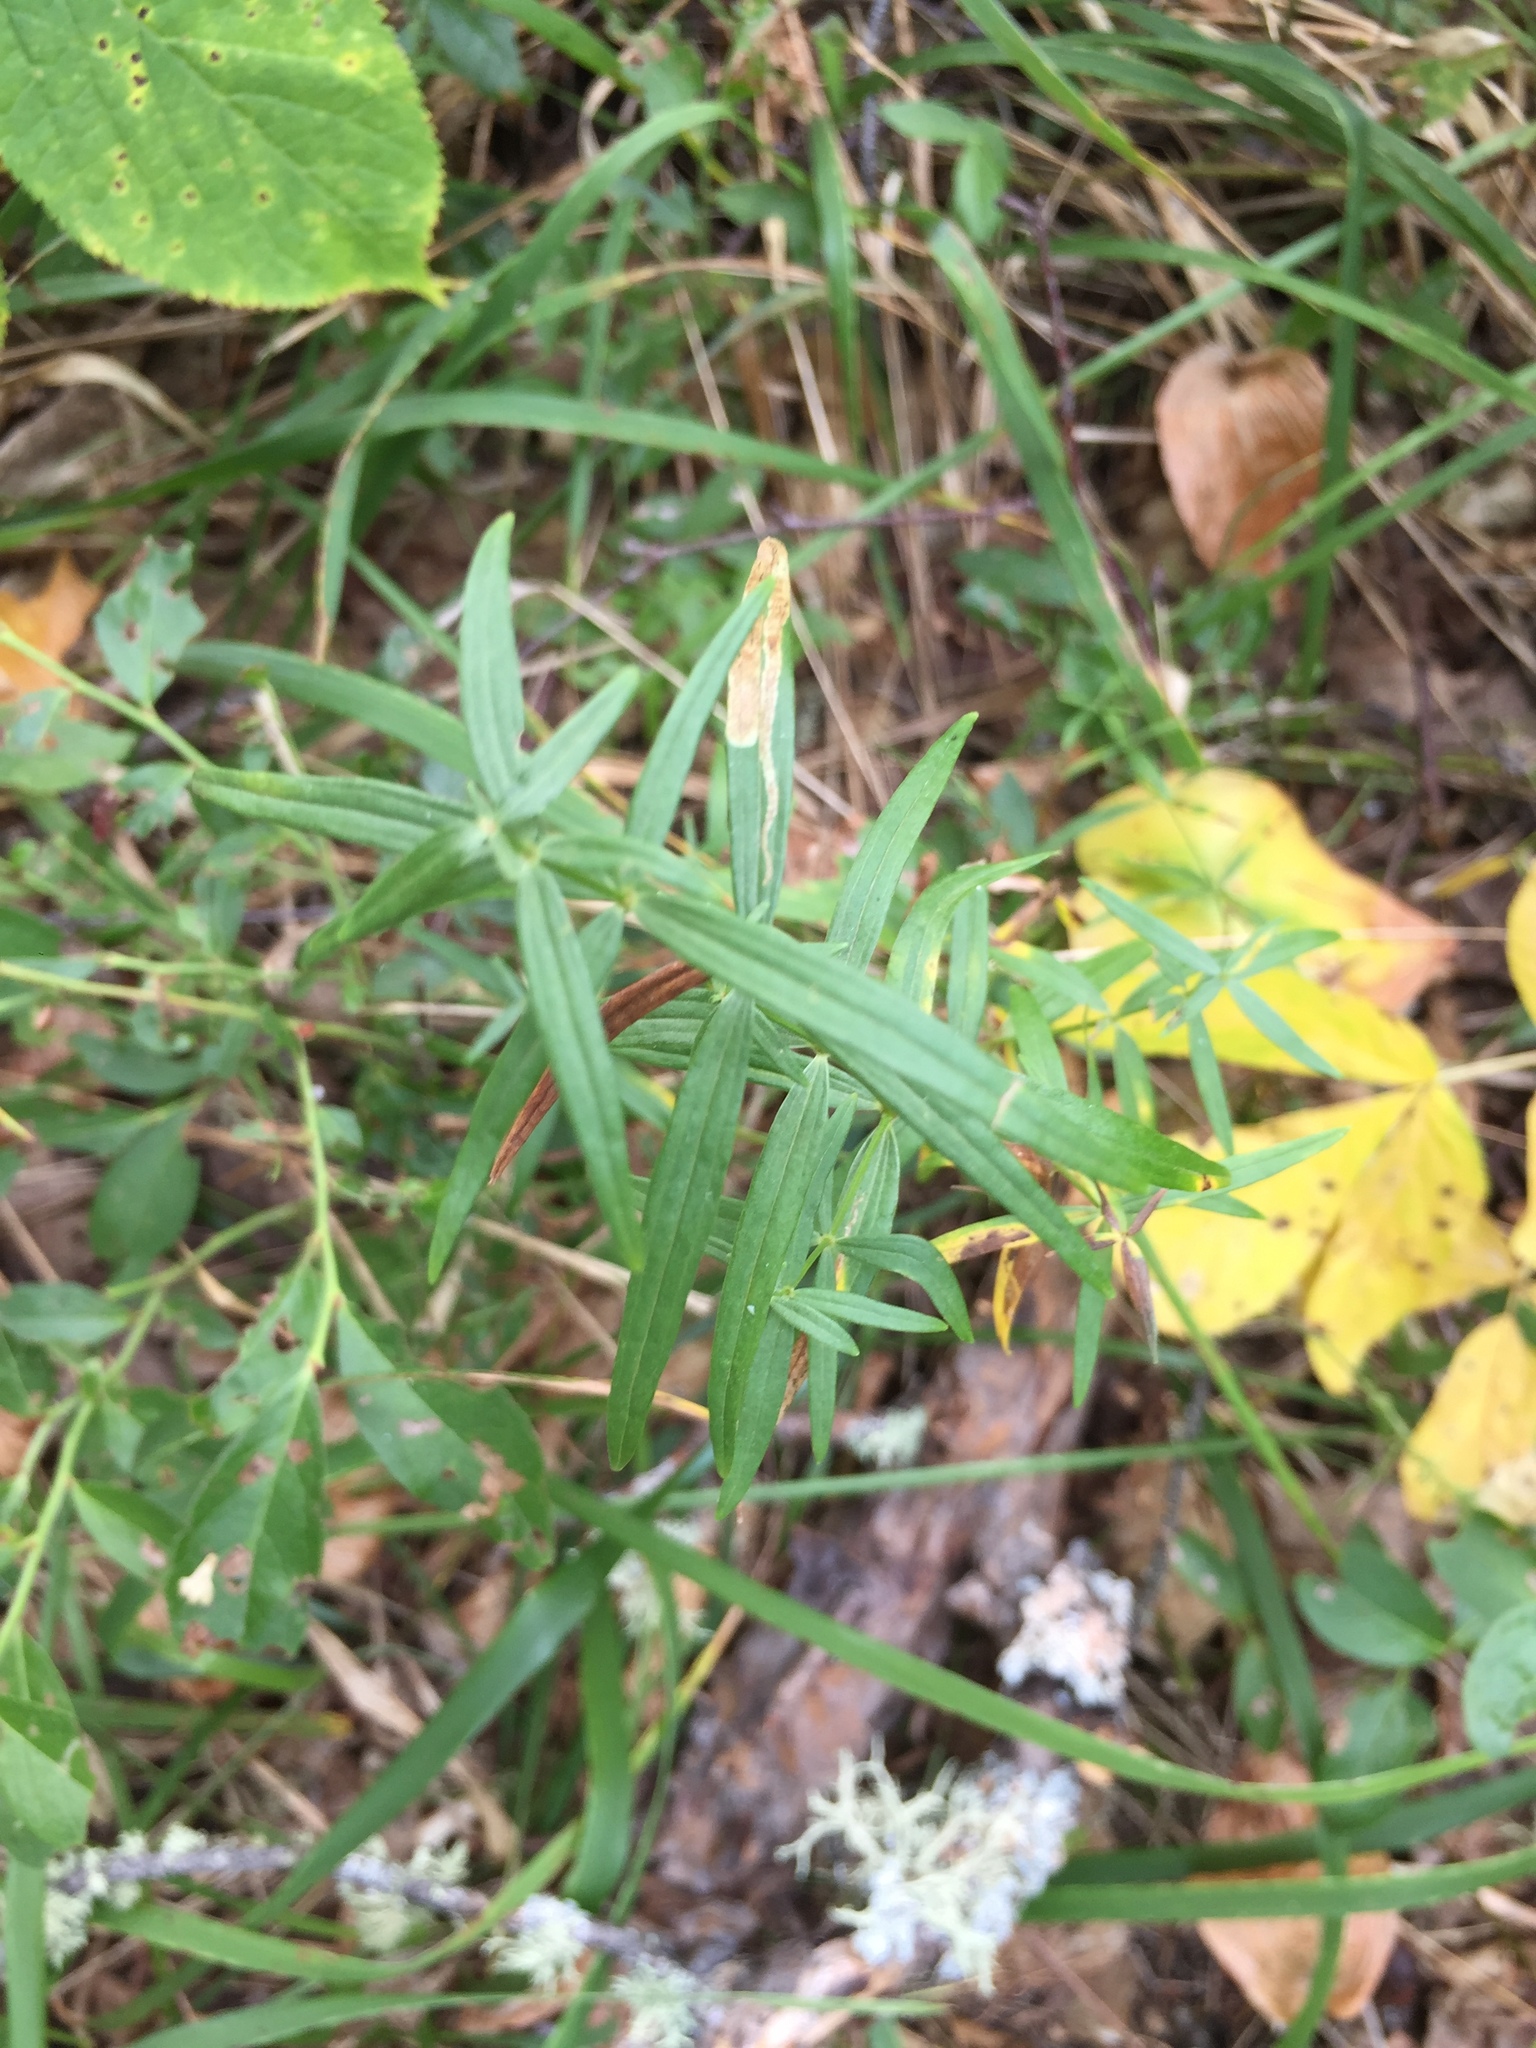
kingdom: Plantae
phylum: Tracheophyta
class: Magnoliopsida
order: Gentianales
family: Rubiaceae
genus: Galium
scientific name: Galium boreale
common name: Northern bedstraw
